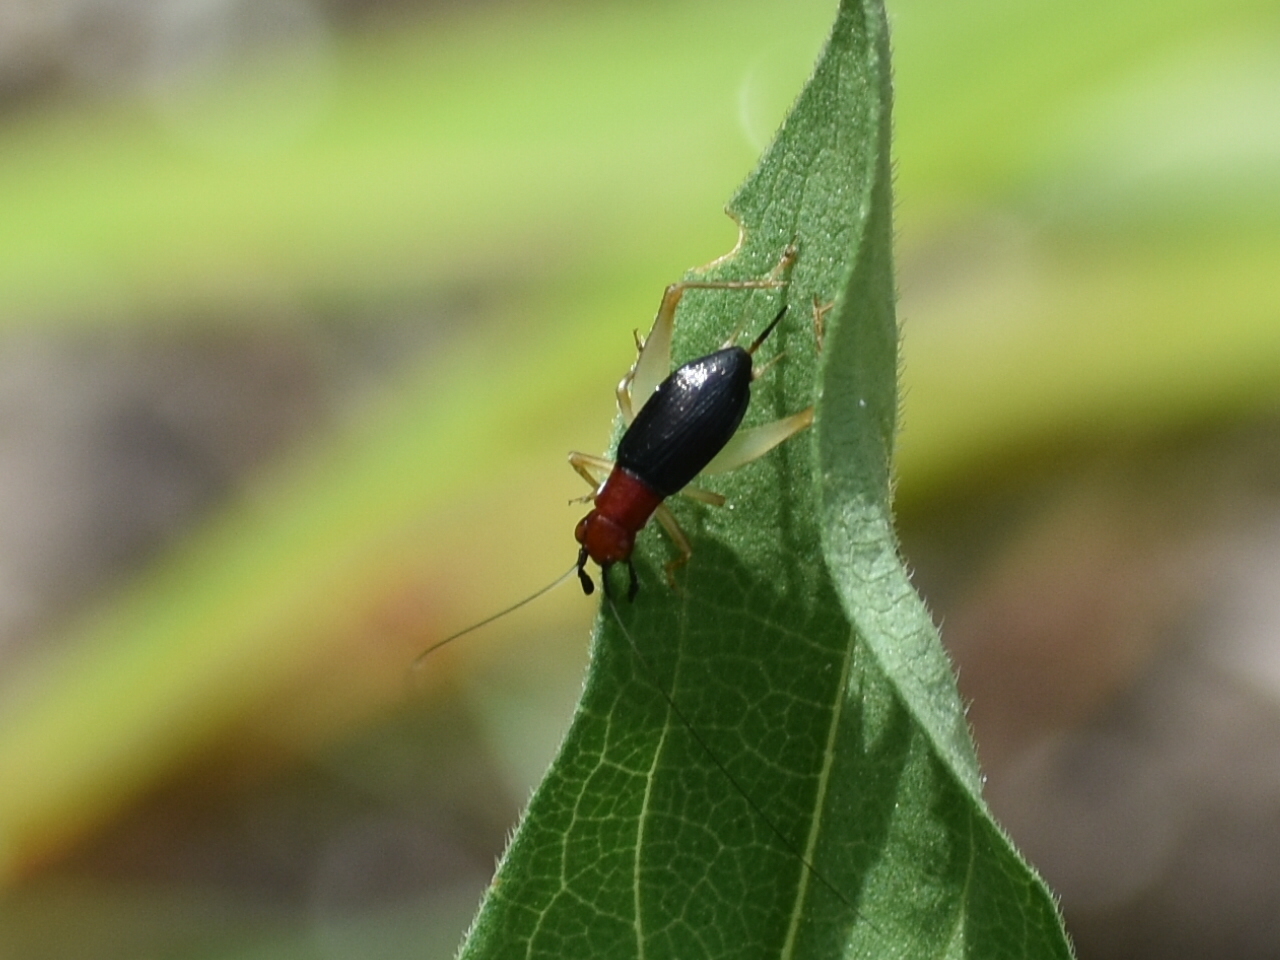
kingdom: Animalia
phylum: Arthropoda
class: Insecta
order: Orthoptera
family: Trigonidiidae
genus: Phyllopalpus
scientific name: Phyllopalpus pulchellus
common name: Handsome trig
